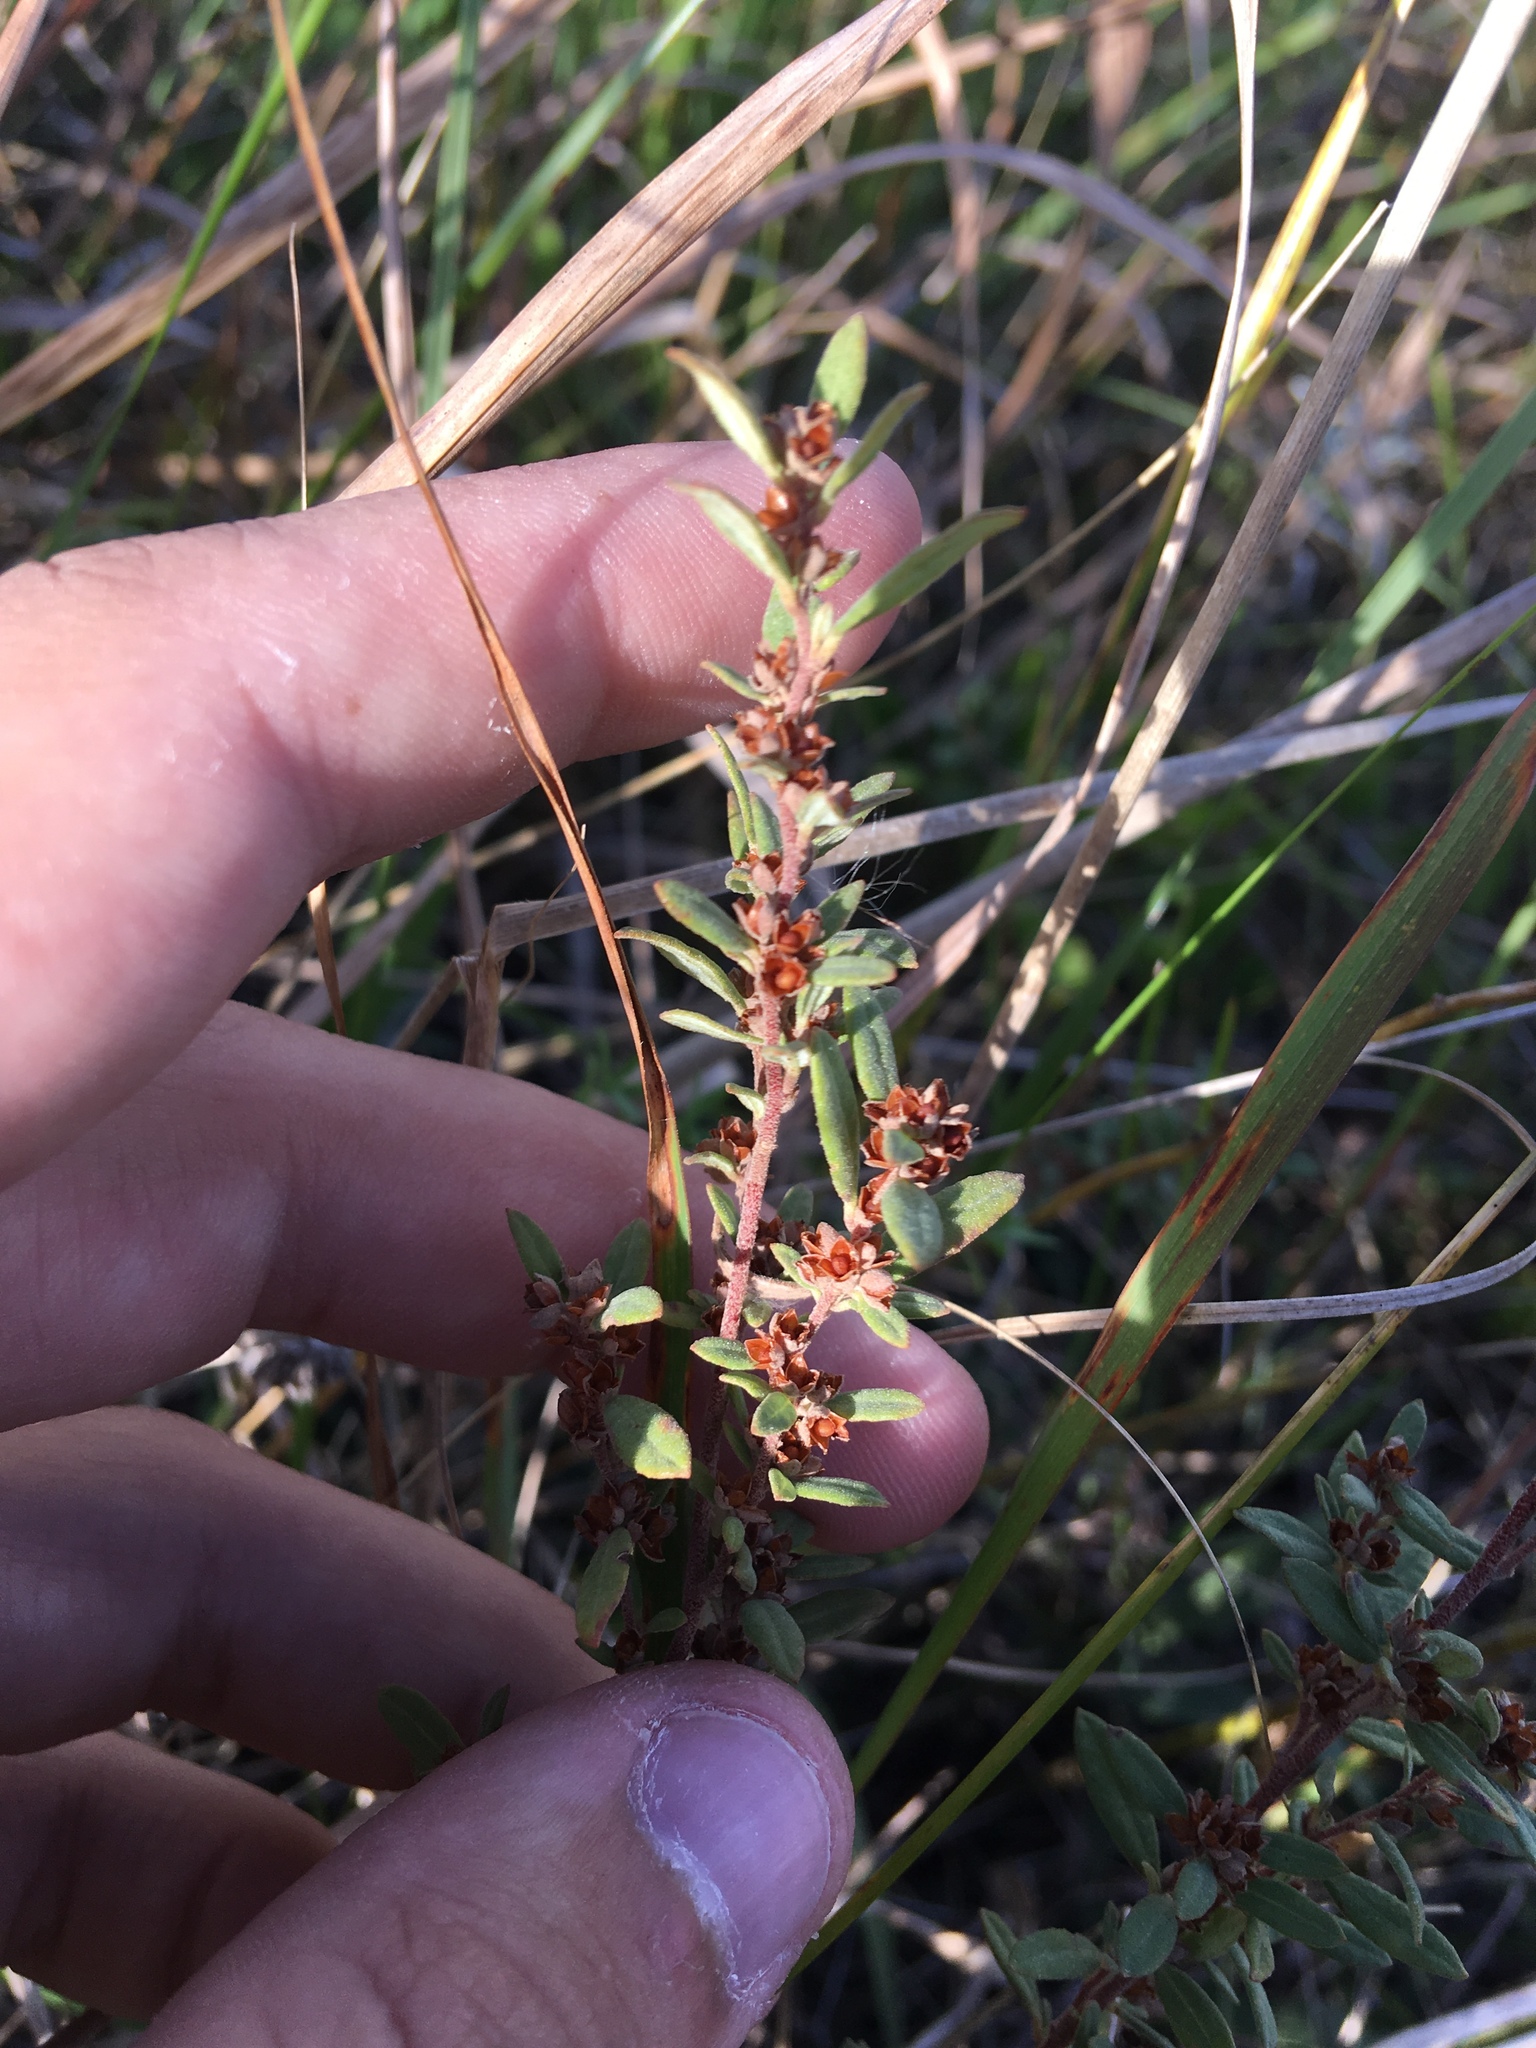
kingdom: Plantae
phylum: Tracheophyta
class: Magnoliopsida
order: Malvales
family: Cistaceae
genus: Crocanthemum
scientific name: Crocanthemum bicknellii
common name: Hoary frostweed
